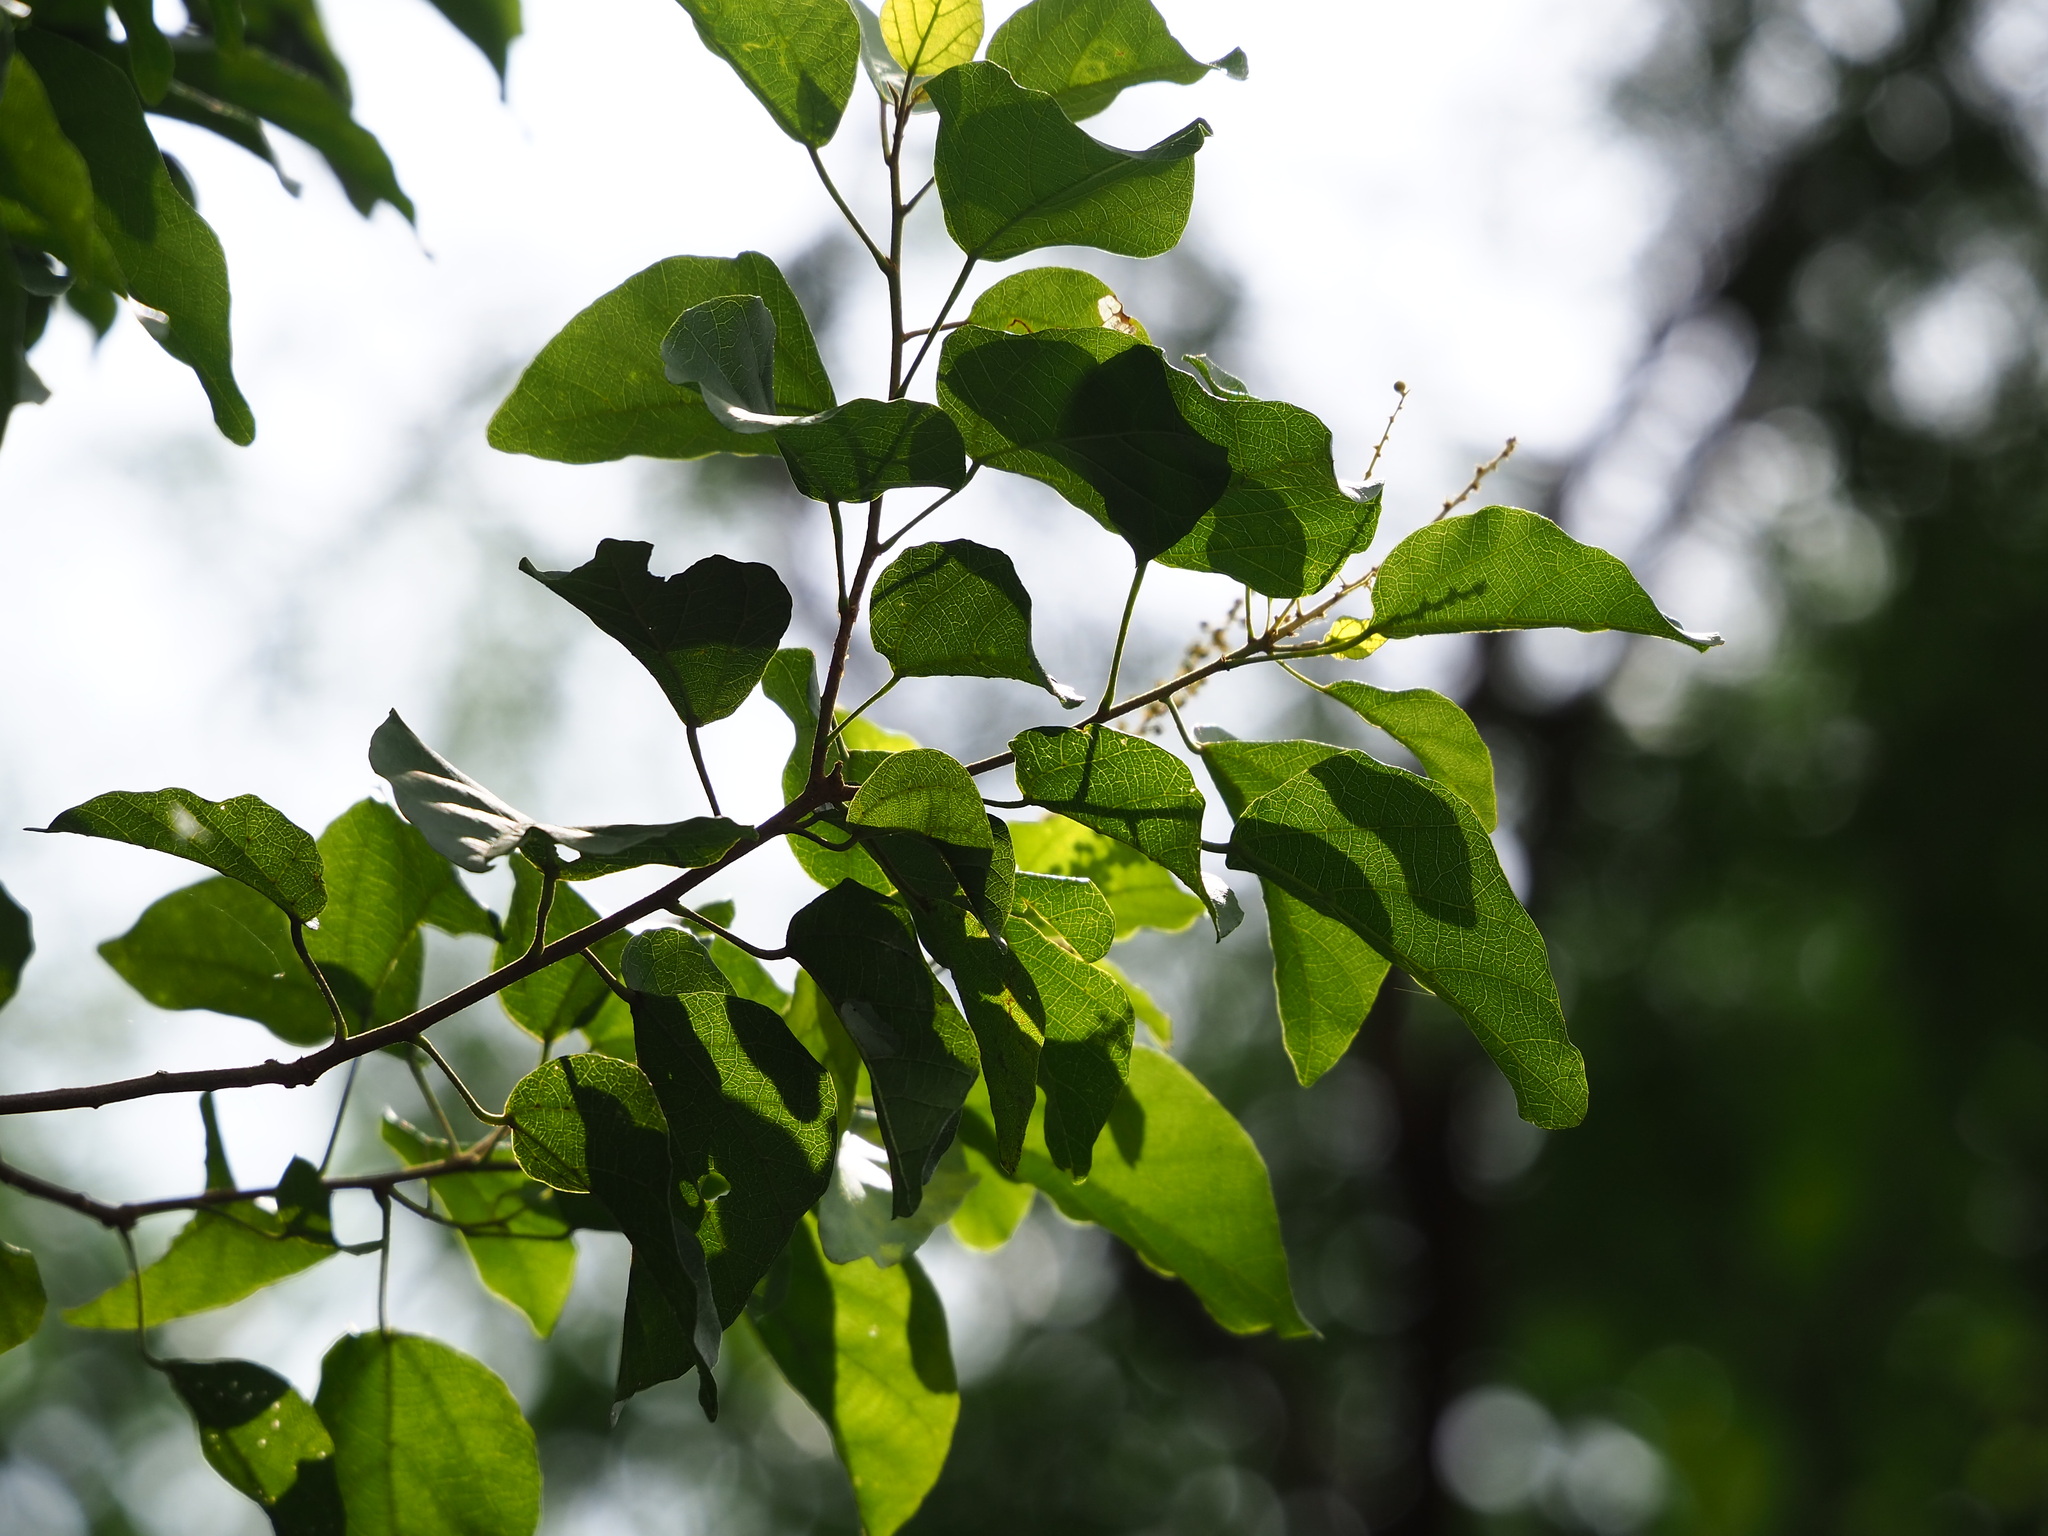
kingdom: Plantae
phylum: Tracheophyta
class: Magnoliopsida
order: Malpighiales
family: Euphorbiaceae
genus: Mallotus
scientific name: Mallotus repandus
